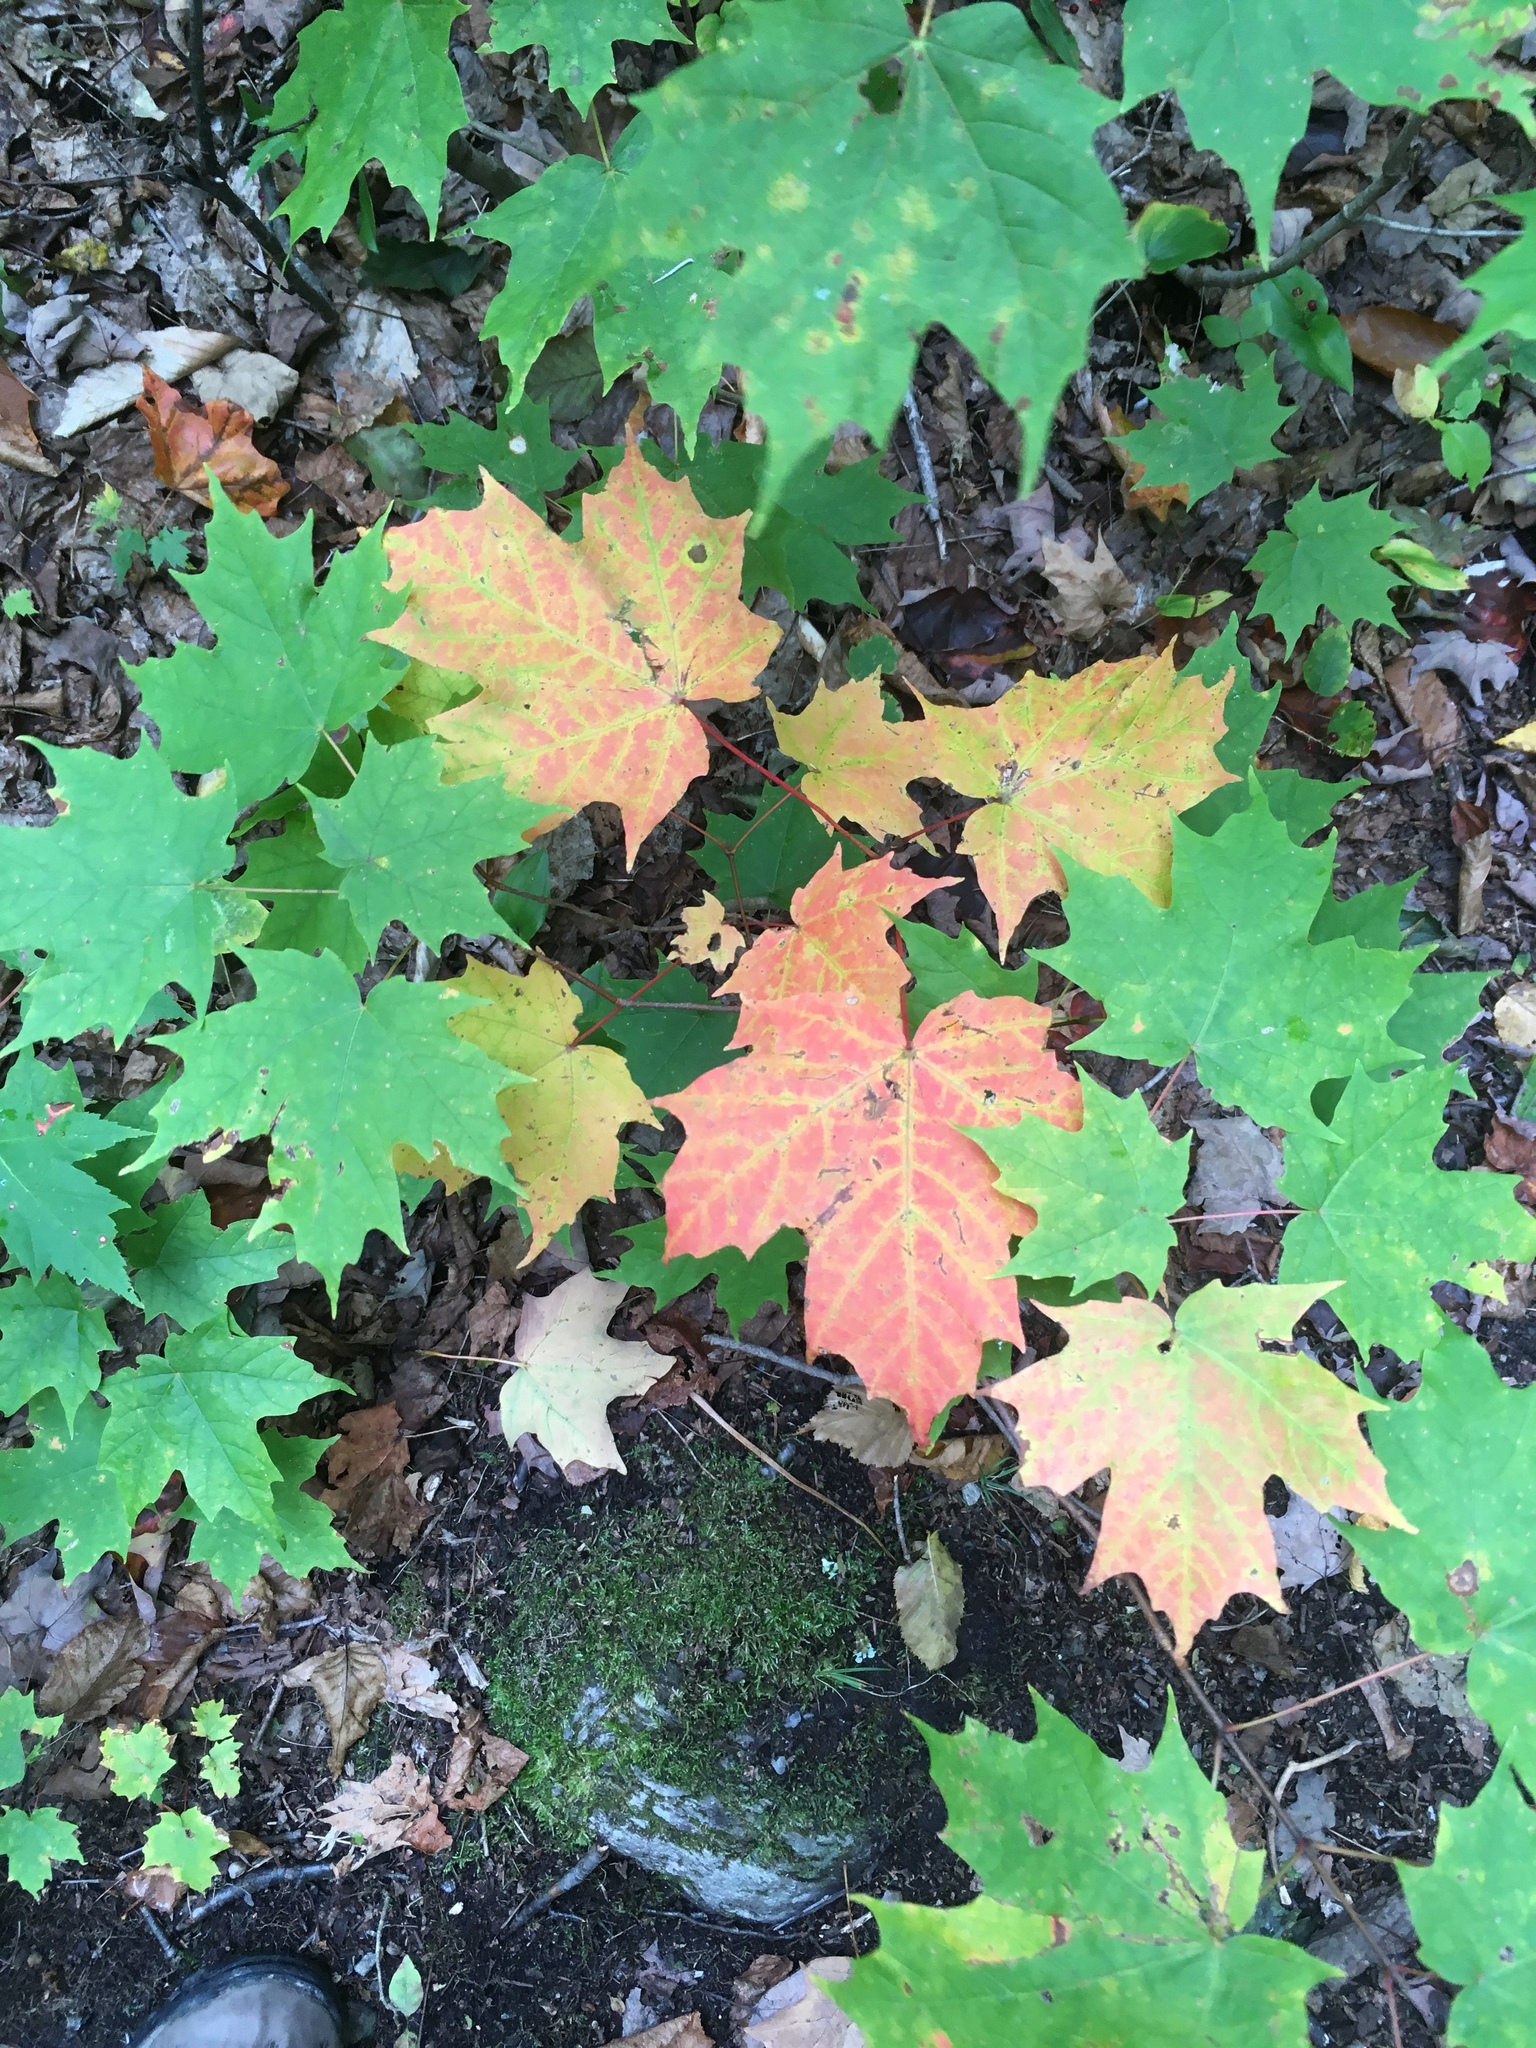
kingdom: Plantae
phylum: Tracheophyta
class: Magnoliopsida
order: Sapindales
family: Sapindaceae
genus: Acer
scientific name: Acer saccharum
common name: Sugar maple
